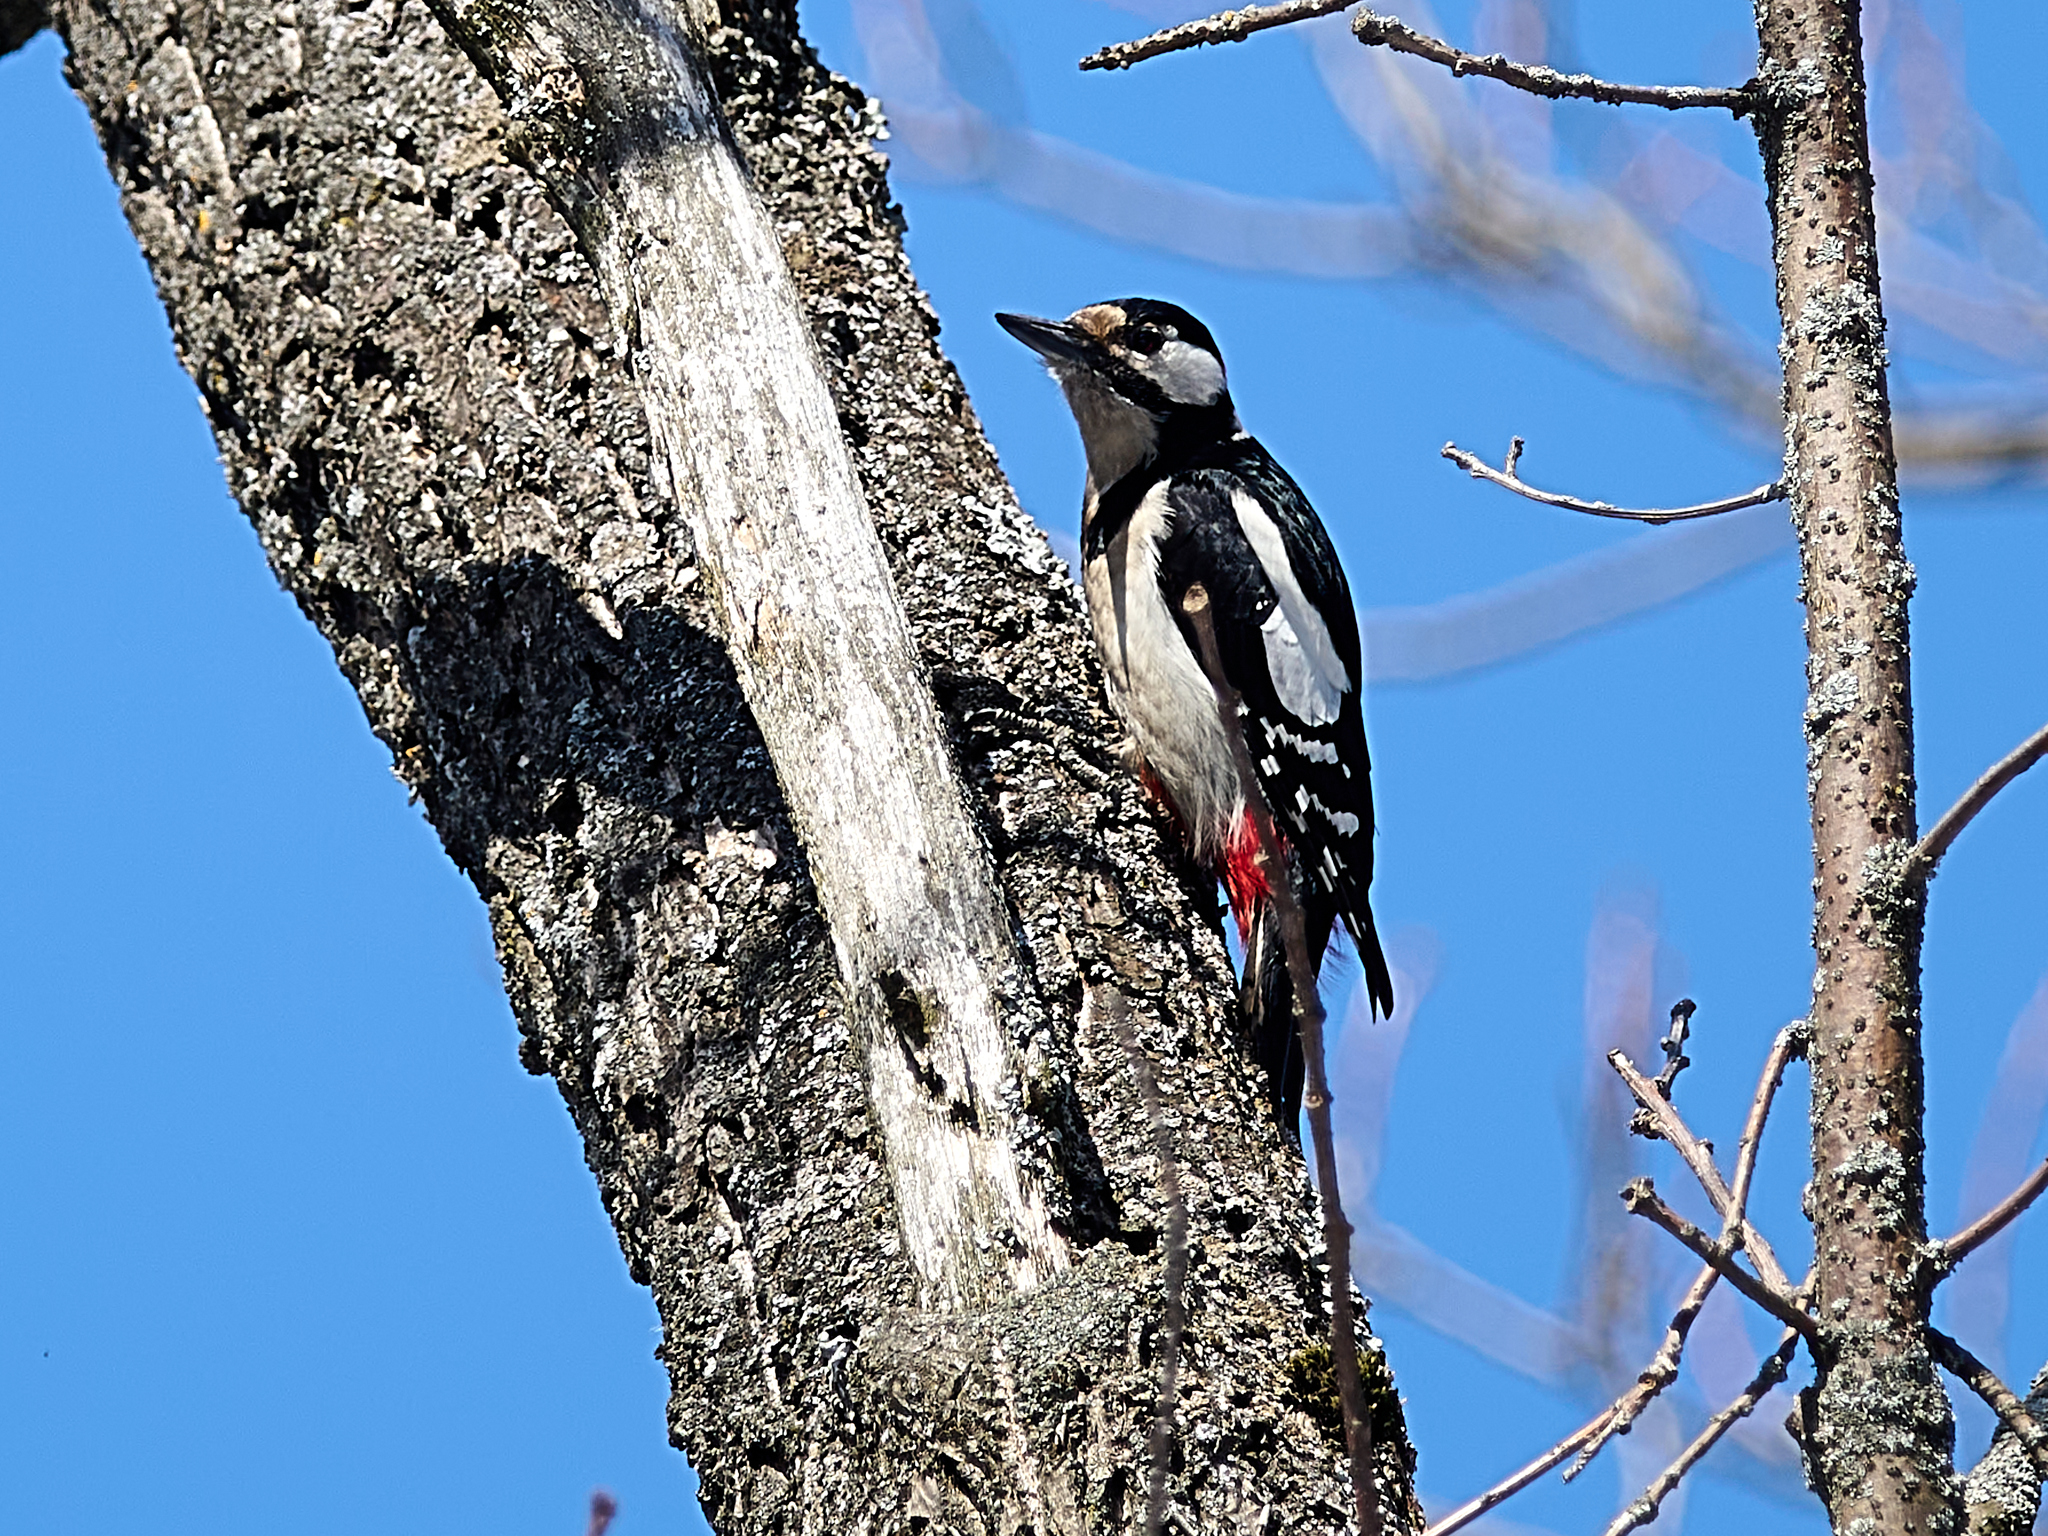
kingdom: Animalia
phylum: Chordata
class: Aves
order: Piciformes
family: Picidae
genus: Dendrocopos
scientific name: Dendrocopos major
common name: Great spotted woodpecker
